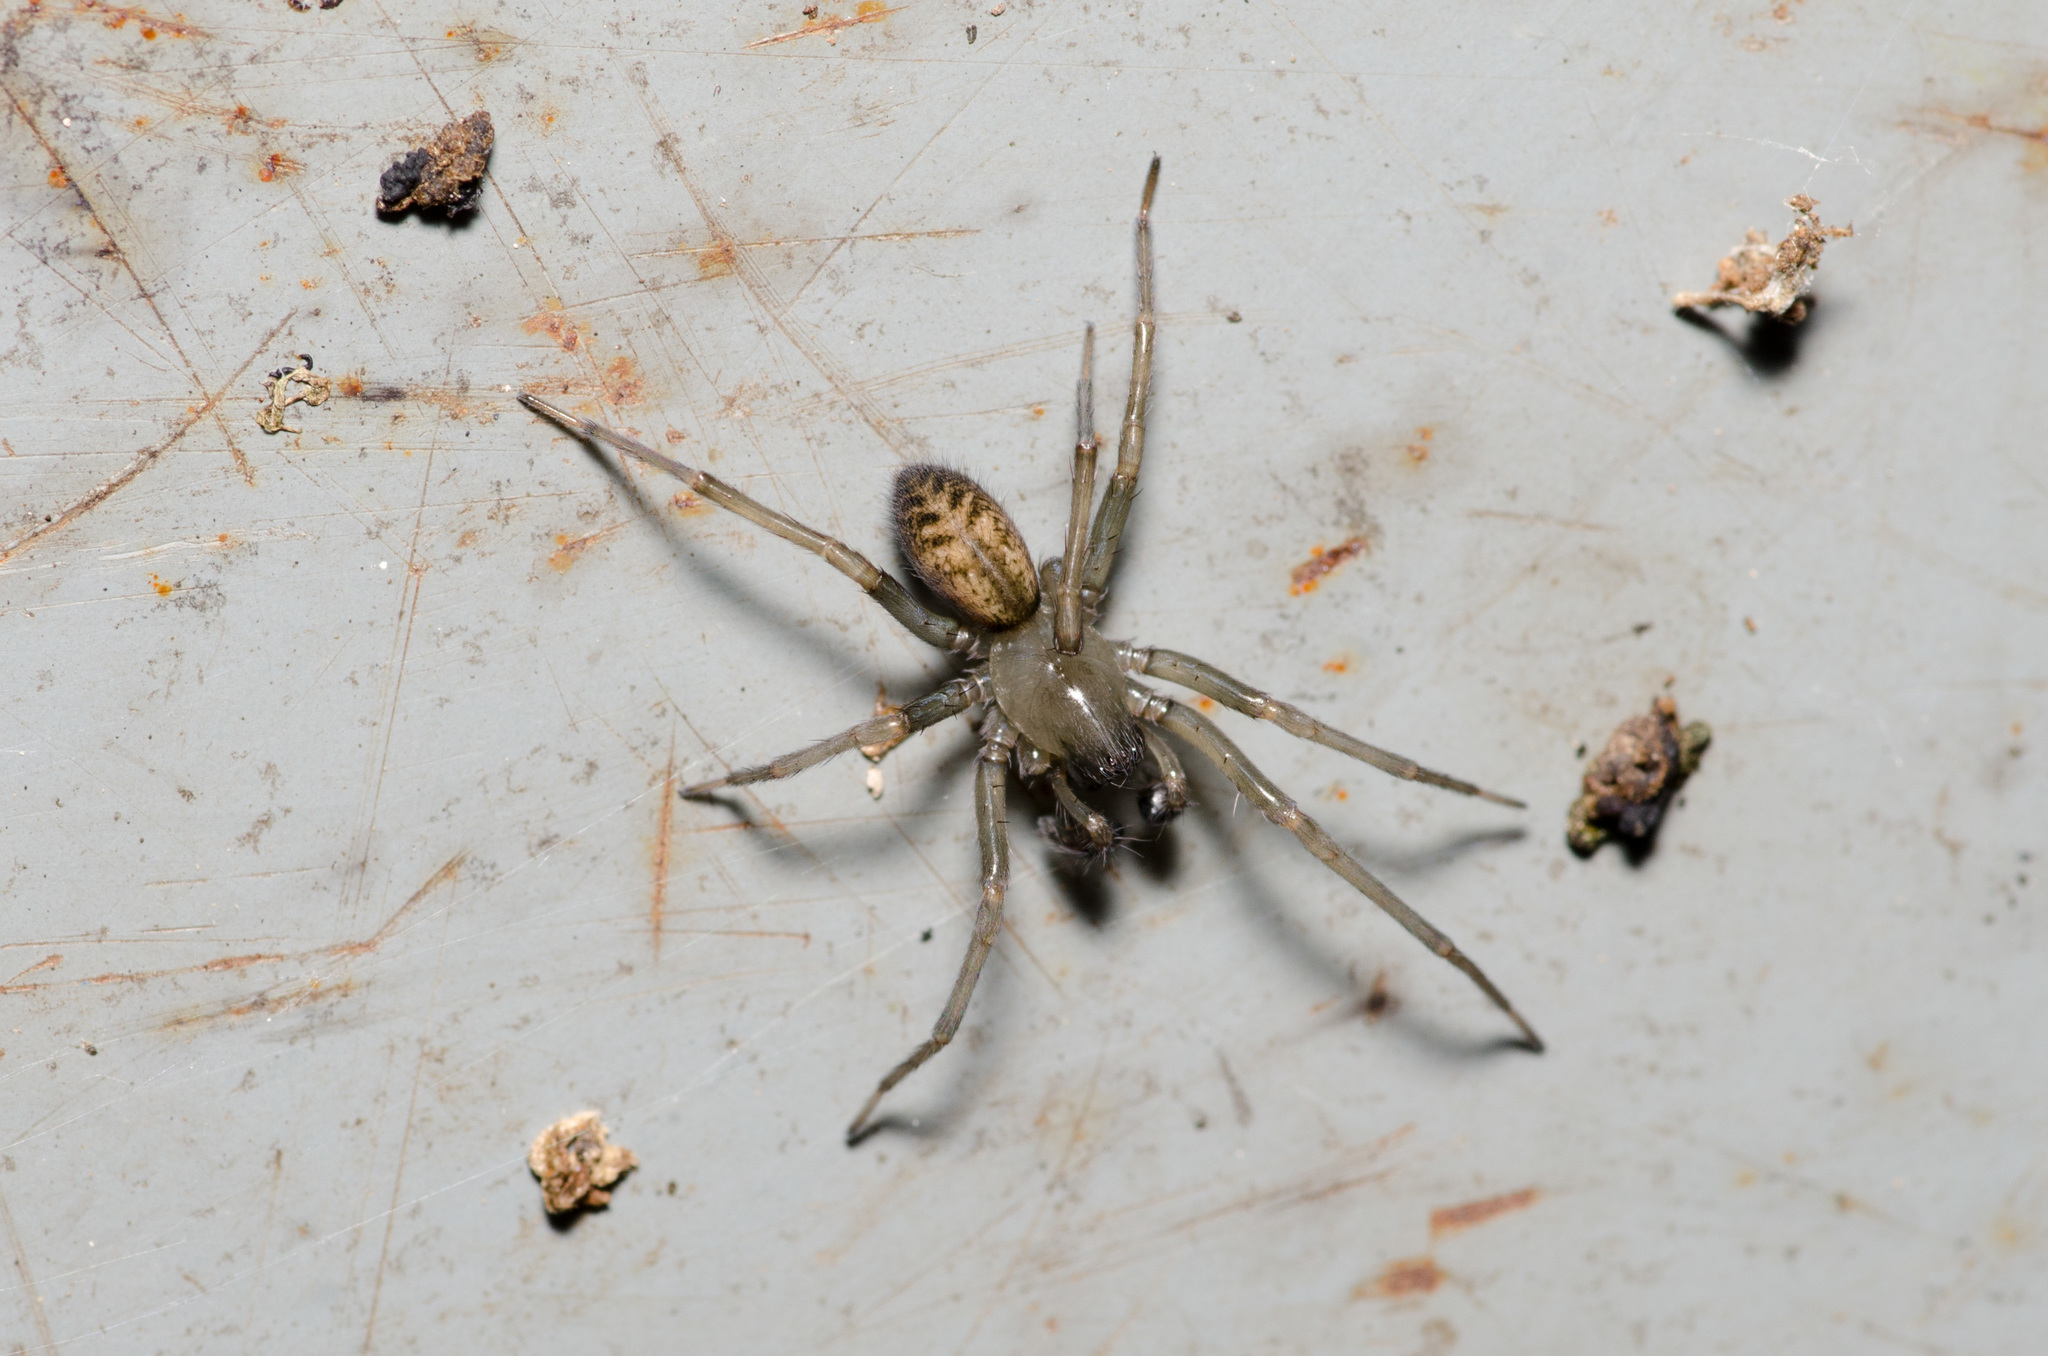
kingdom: Animalia
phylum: Arthropoda
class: Arachnida
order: Araneae
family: Desidae
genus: Metaltella
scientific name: Metaltella simoni
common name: Cribellate spider
